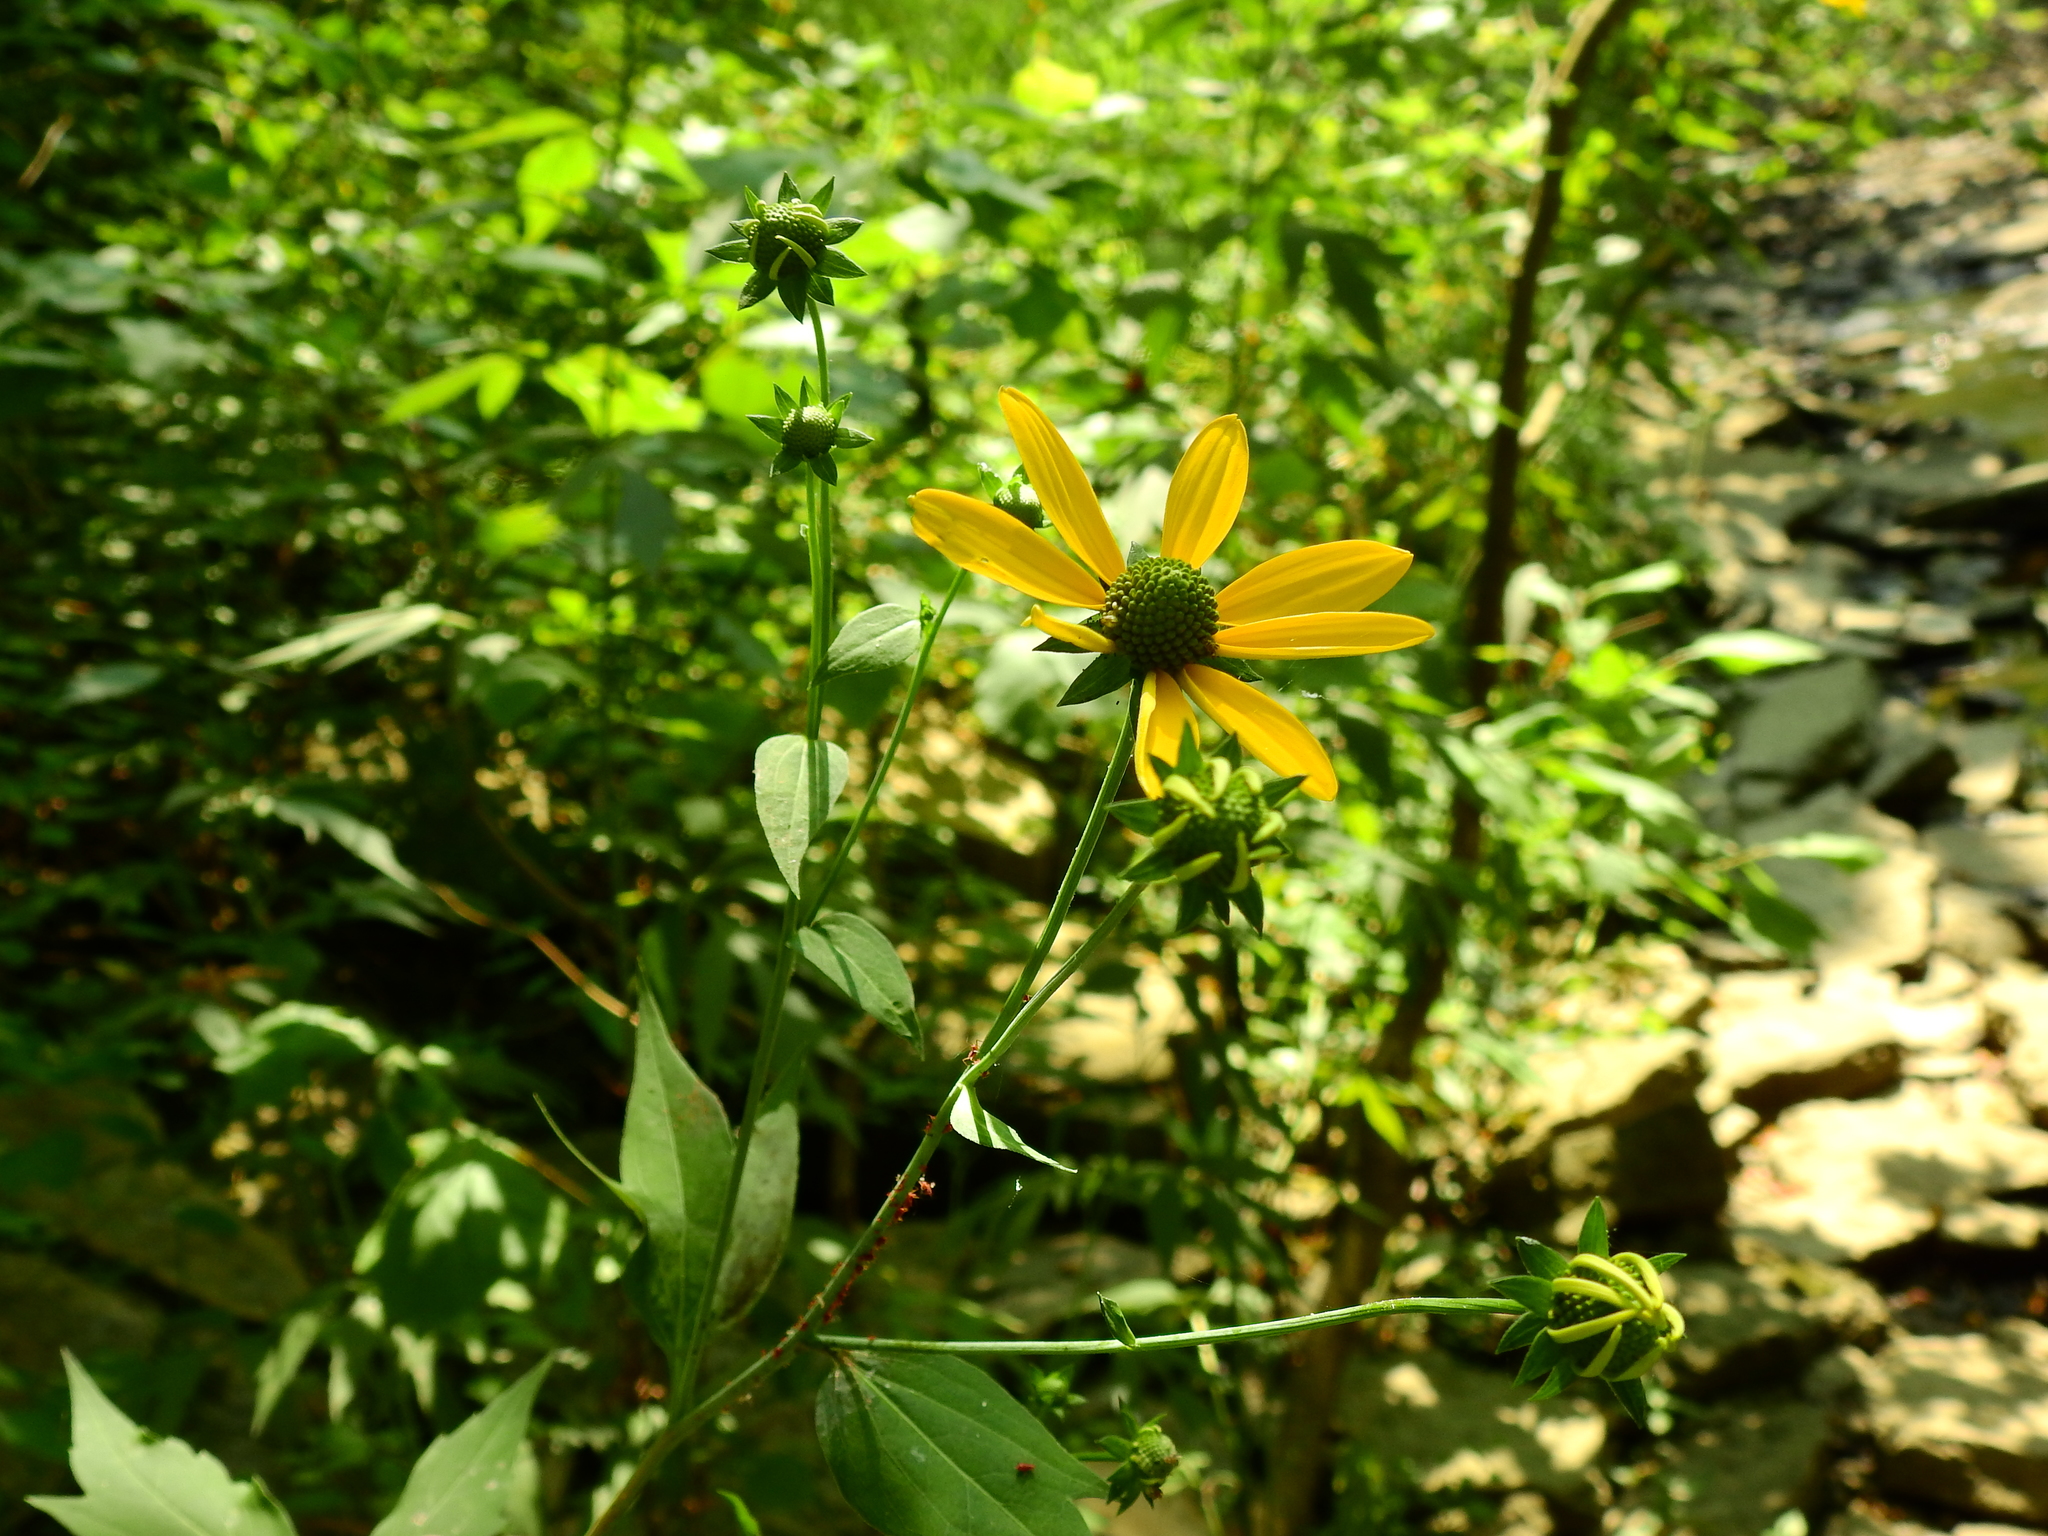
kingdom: Plantae
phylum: Tracheophyta
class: Magnoliopsida
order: Asterales
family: Asteraceae
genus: Rudbeckia
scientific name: Rudbeckia laciniata
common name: Coneflower
